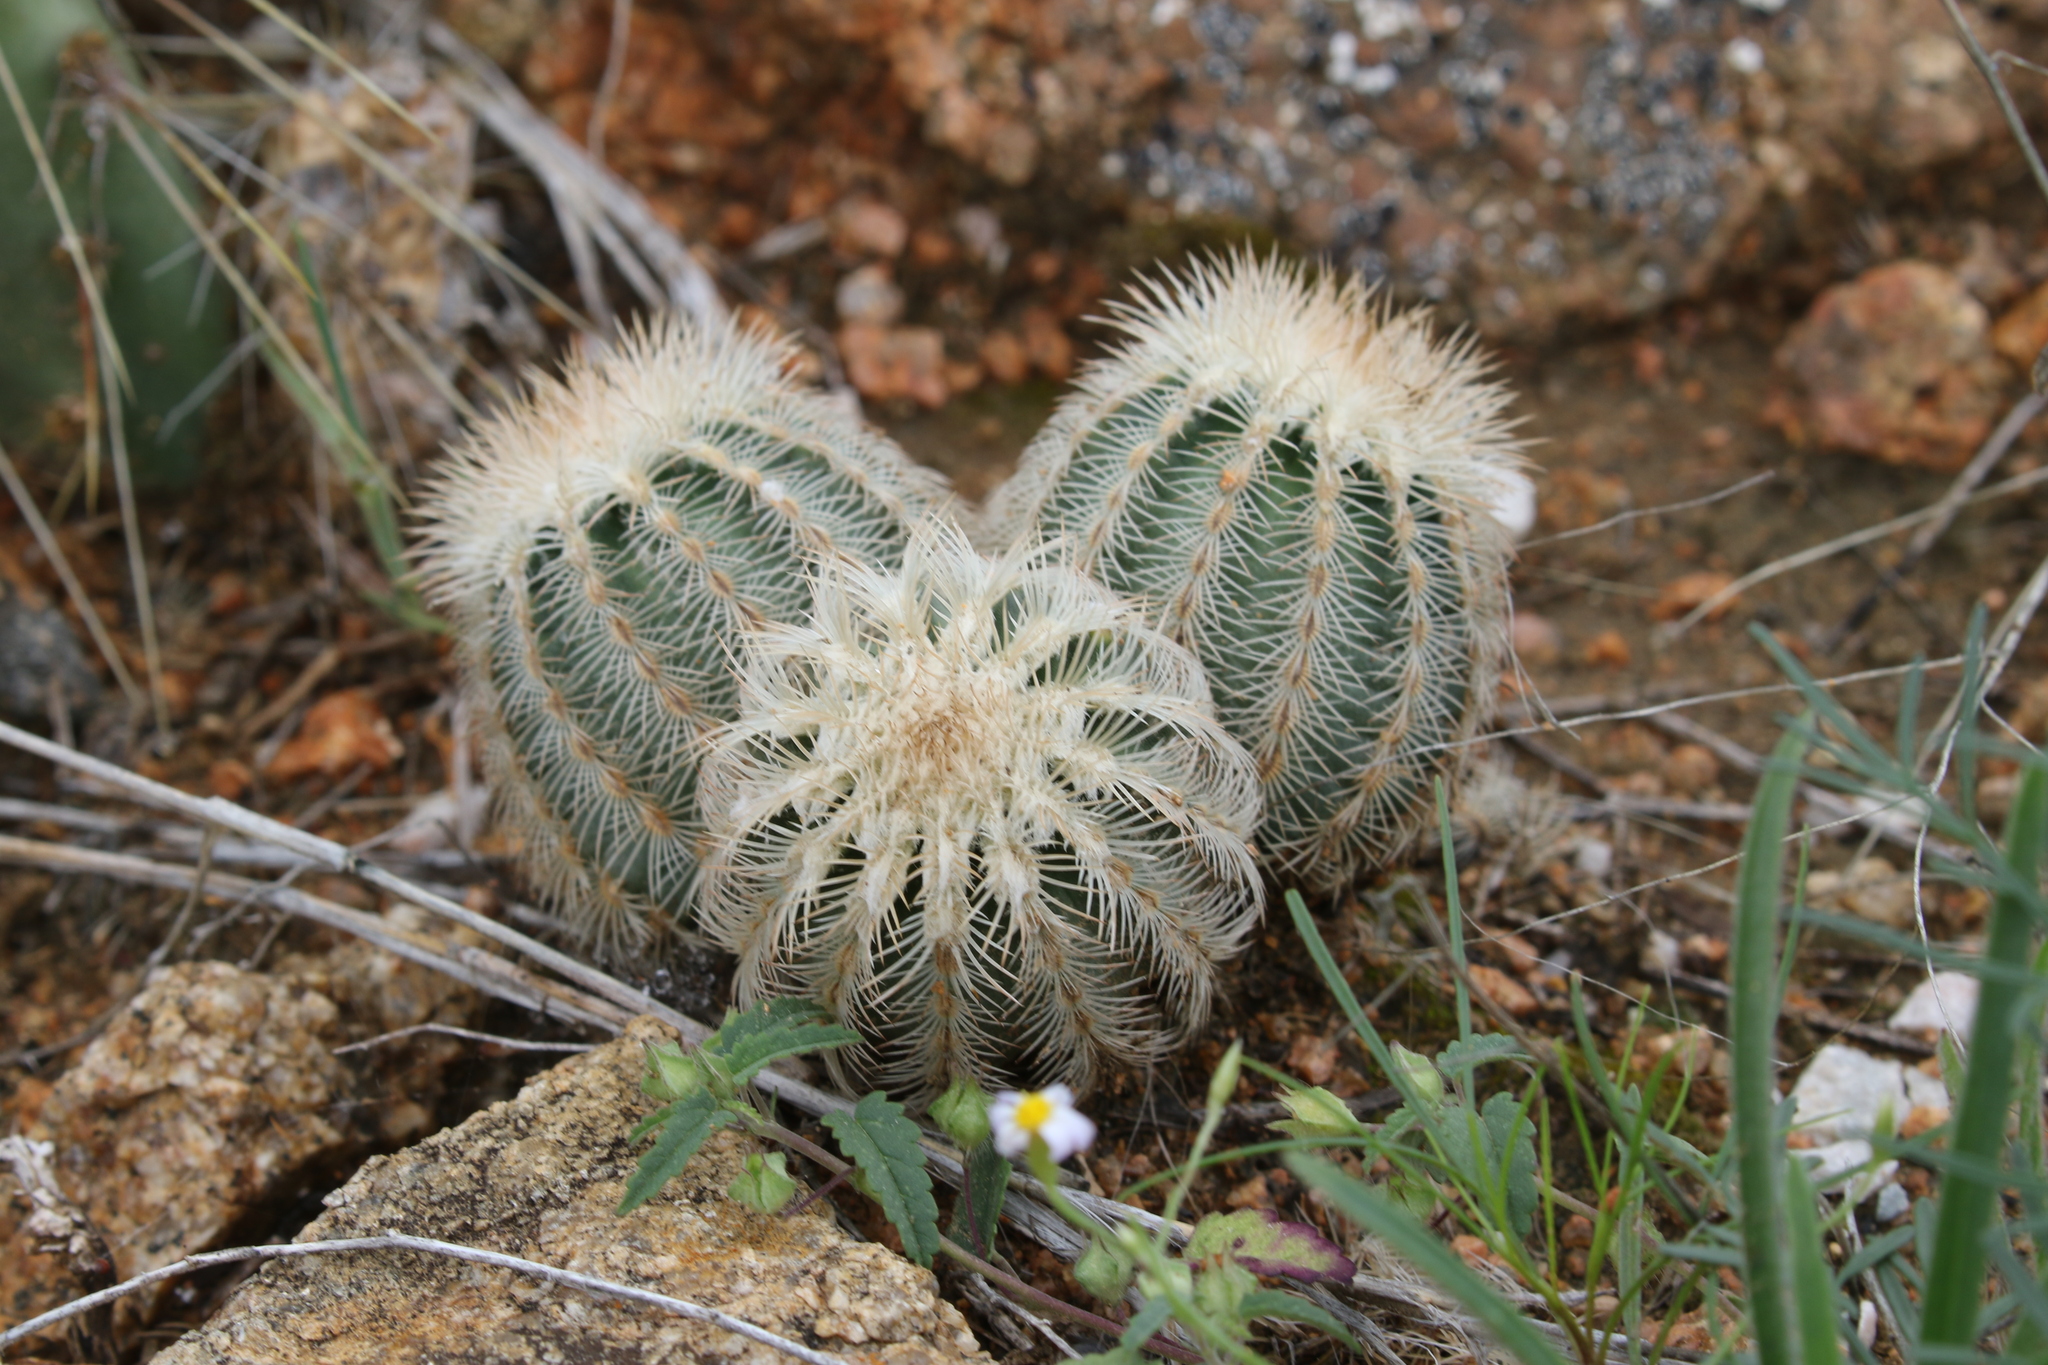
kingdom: Plantae
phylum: Tracheophyta
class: Magnoliopsida
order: Caryophyllales
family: Cactaceae
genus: Echinocereus
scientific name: Echinocereus reichenbachii
